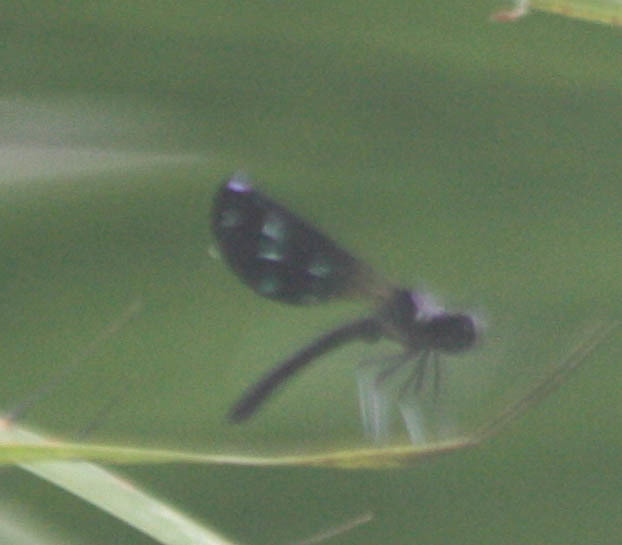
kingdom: Animalia
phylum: Arthropoda
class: Insecta
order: Odonata
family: Chlorocyphidae
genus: Aristocypha
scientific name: Aristocypha fenestrella
